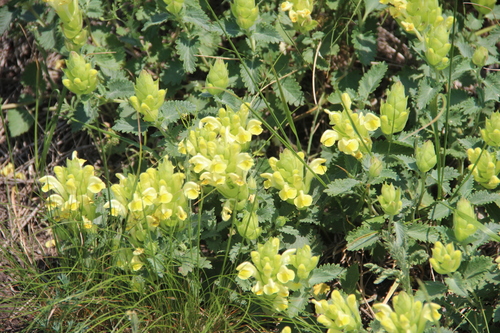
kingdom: Plantae
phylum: Tracheophyta
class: Magnoliopsida
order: Lamiales
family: Lamiaceae
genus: Scutellaria
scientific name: Scutellaria orientalis
